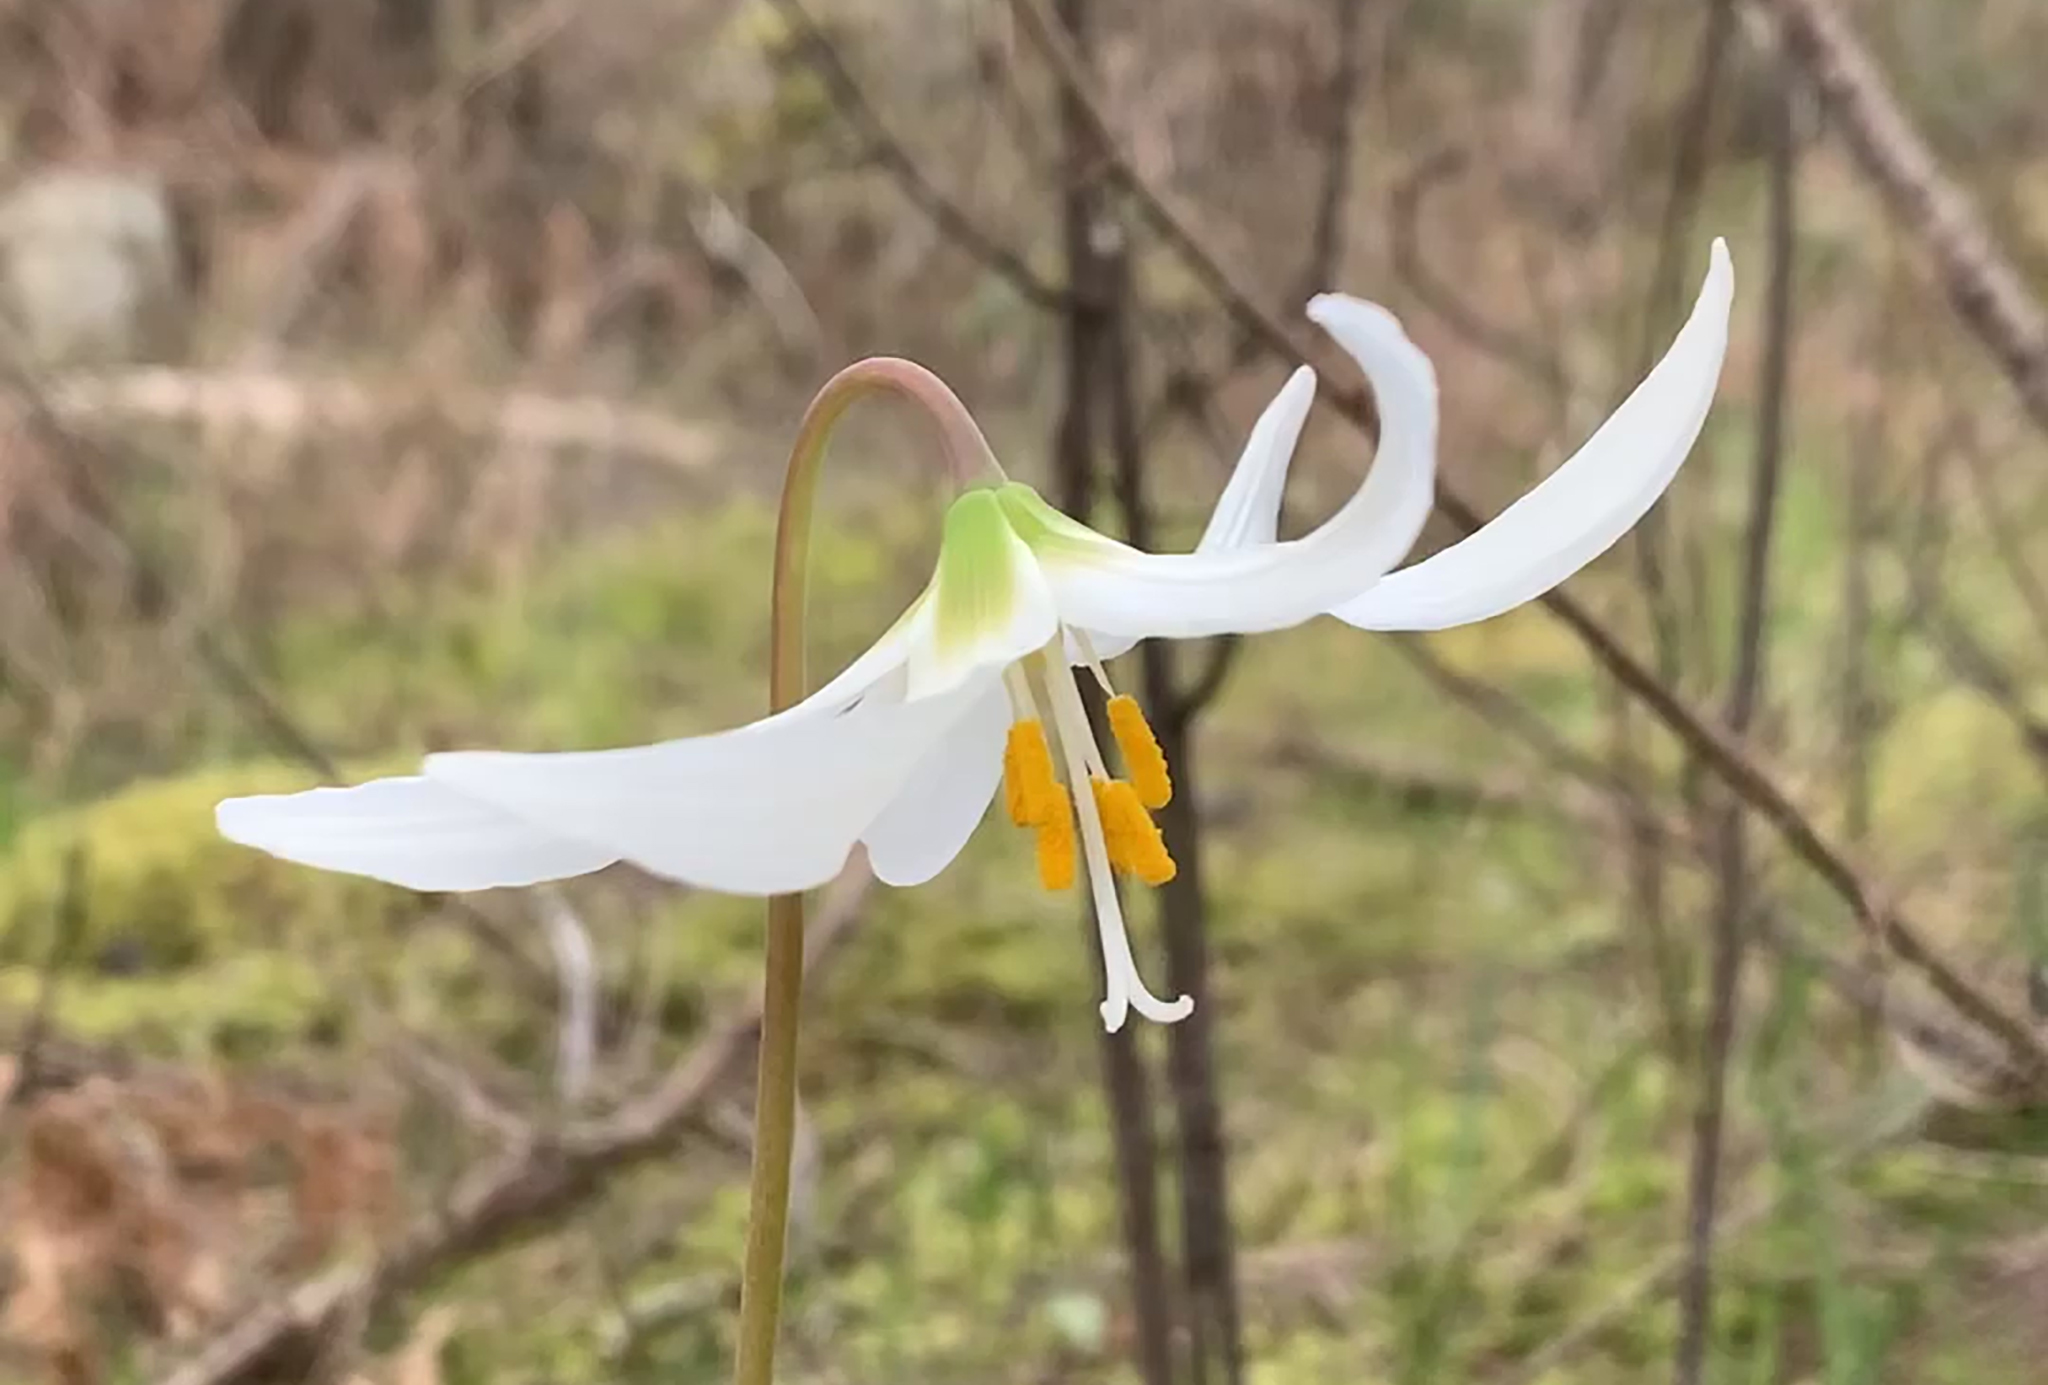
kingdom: Plantae
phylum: Tracheophyta
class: Liliopsida
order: Liliales
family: Liliaceae
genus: Erythronium
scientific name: Erythronium oregonum
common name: Giant adder's-tongue
